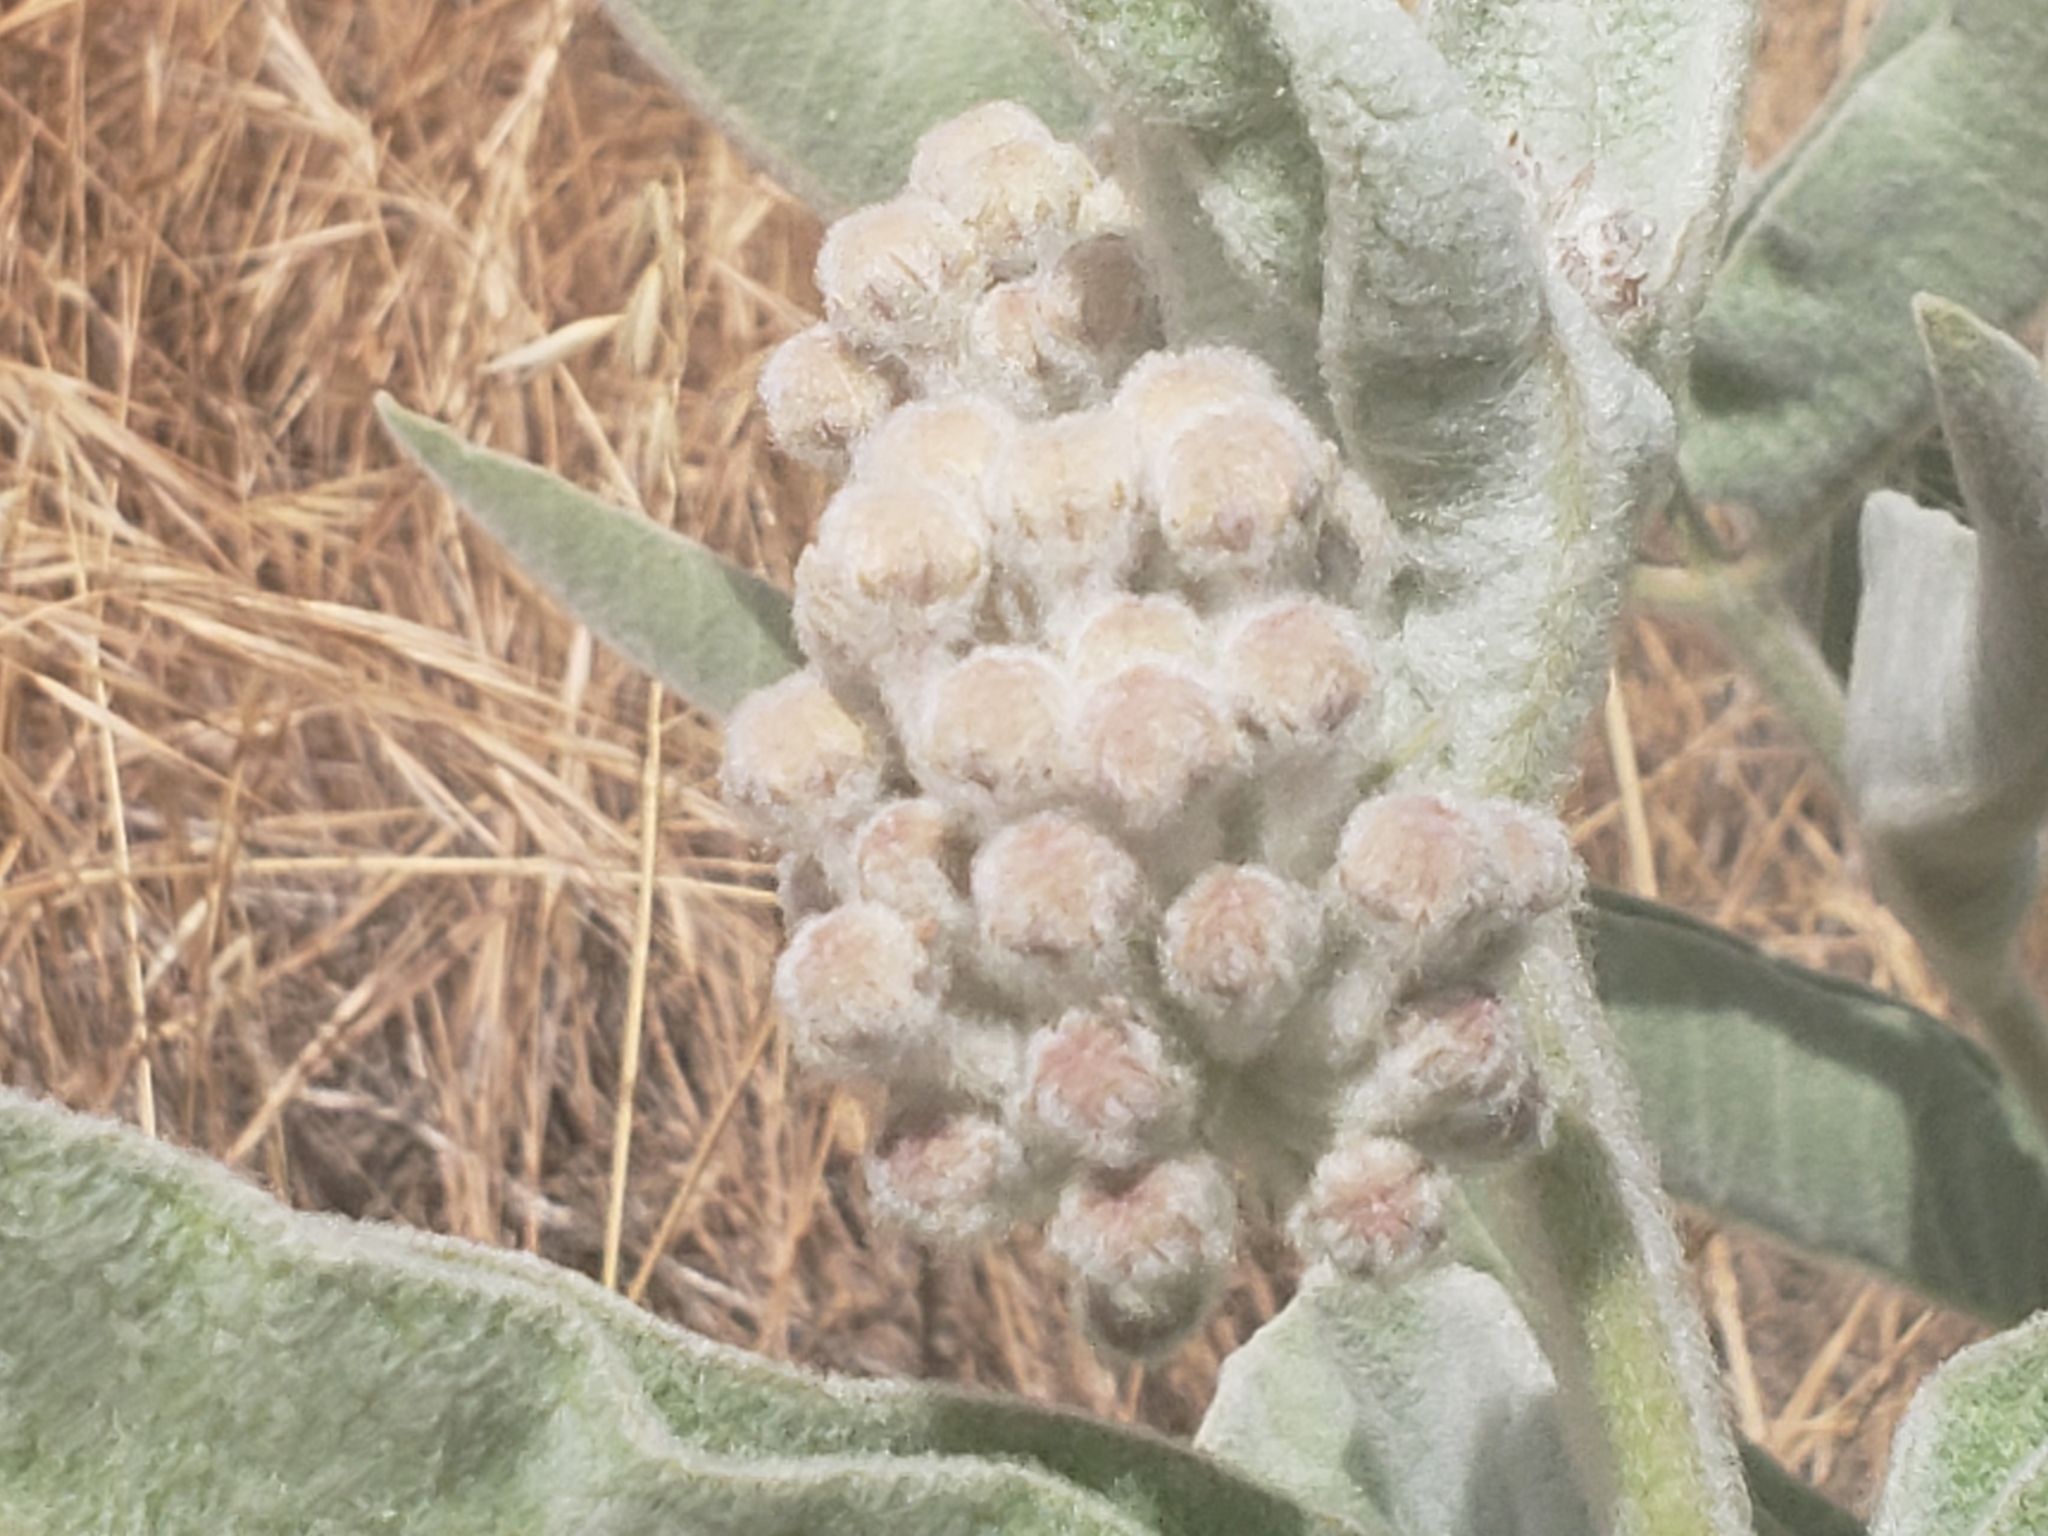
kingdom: Plantae
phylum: Tracheophyta
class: Magnoliopsida
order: Gentianales
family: Apocynaceae
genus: Asclepias
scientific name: Asclepias eriocarpa
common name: Indian milkweed
